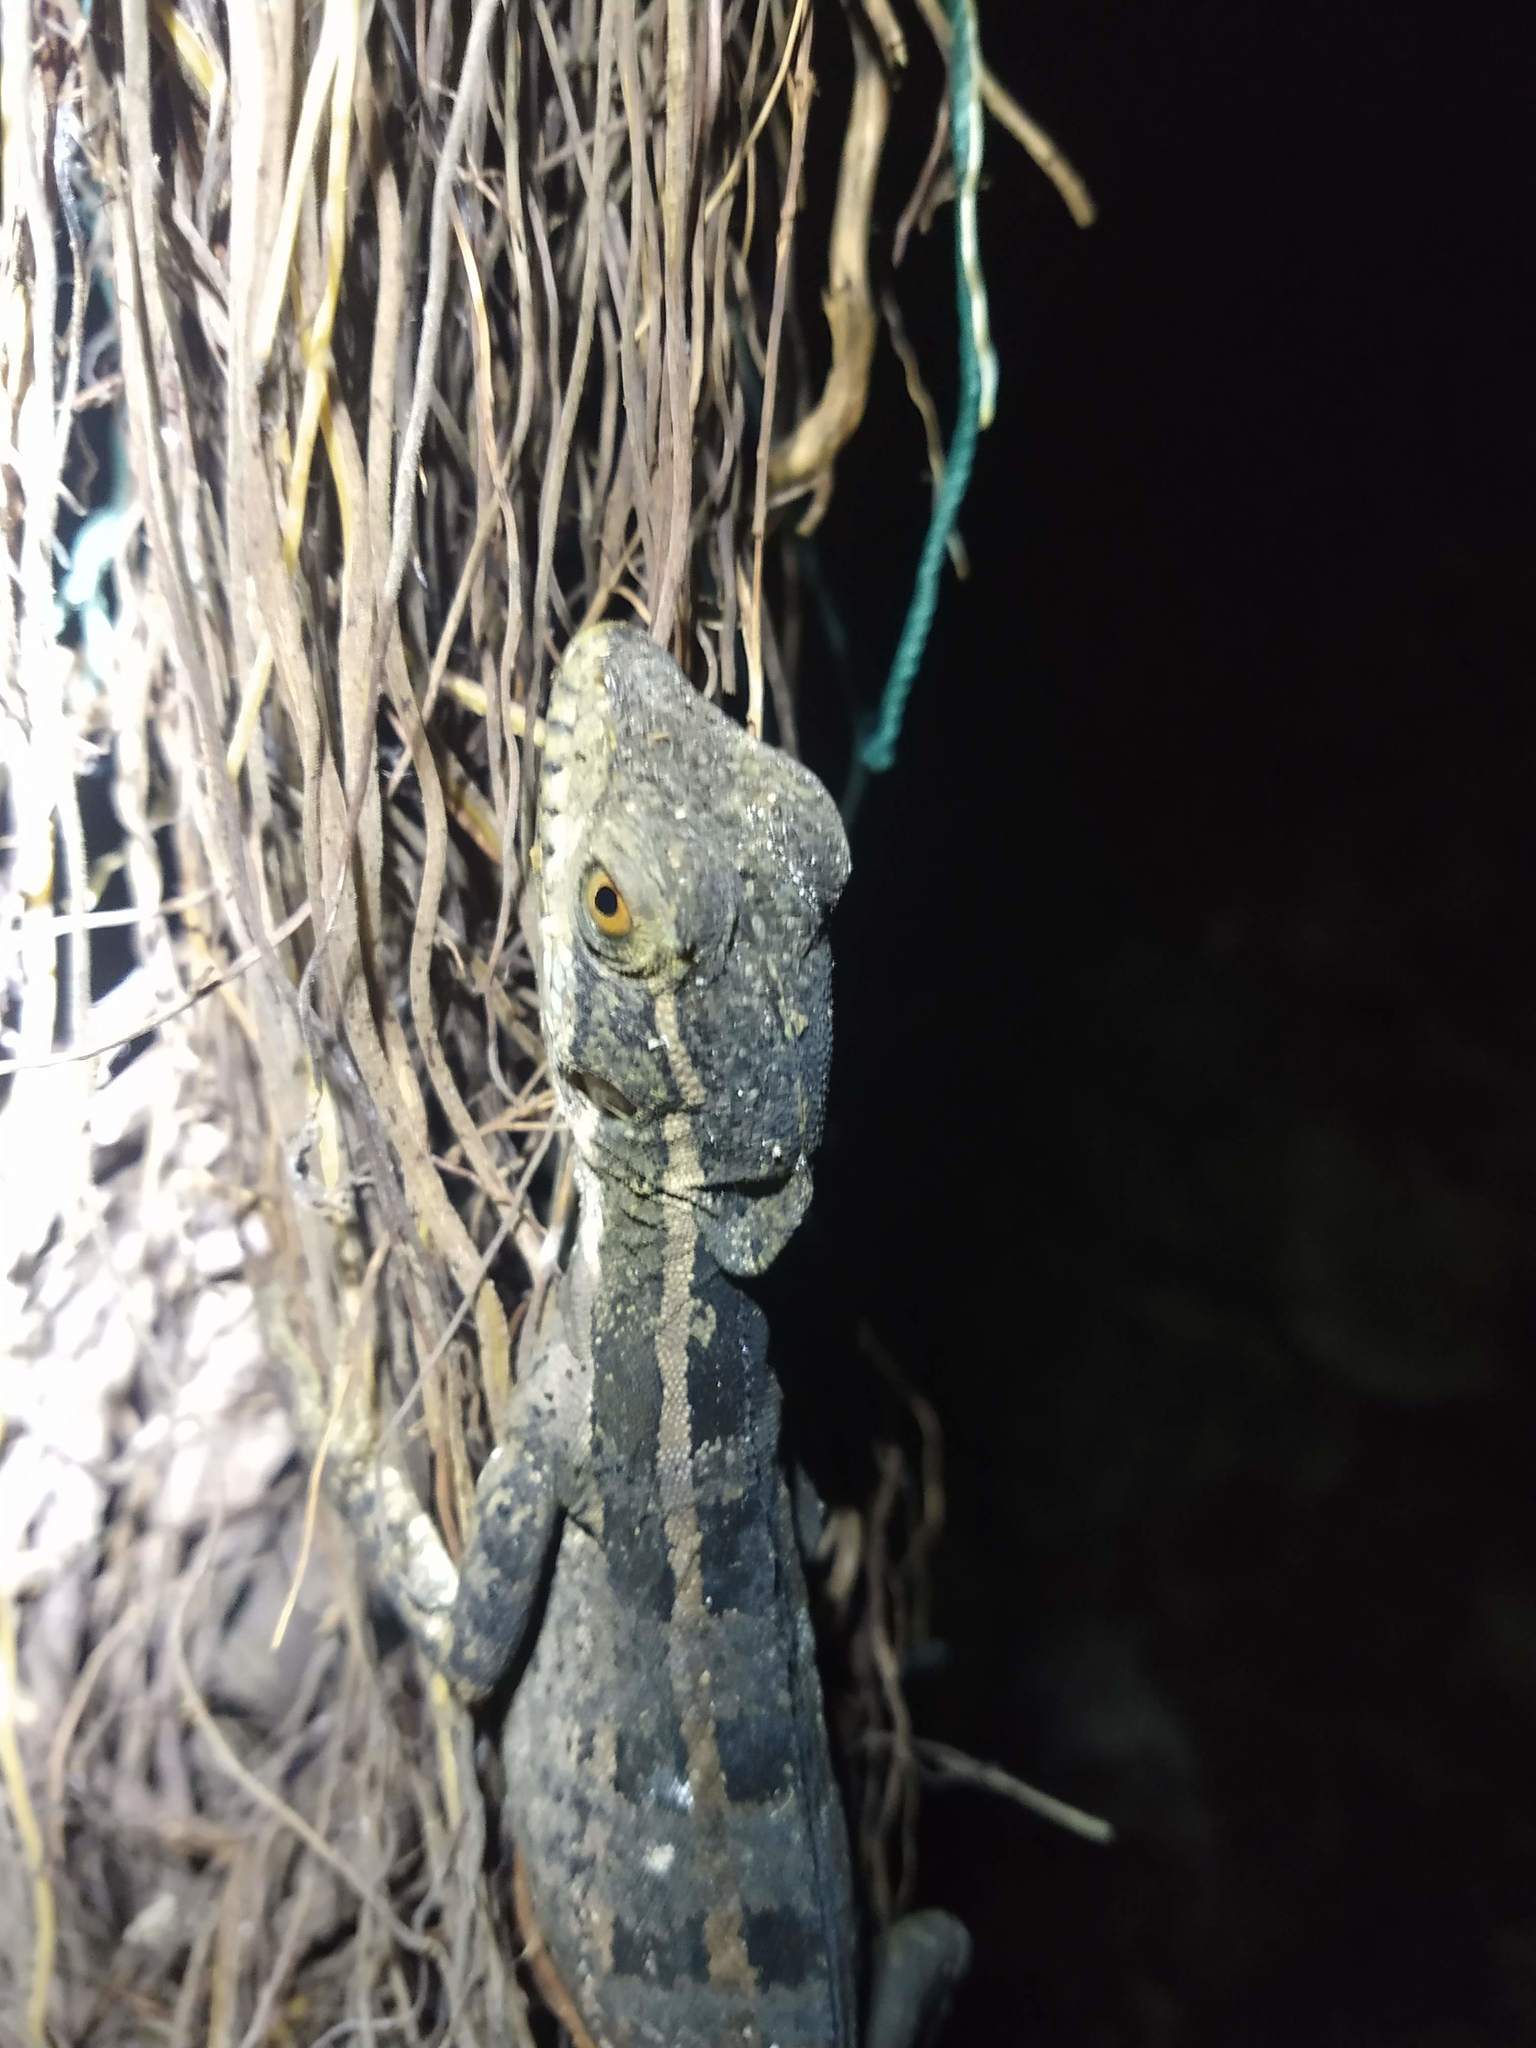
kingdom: Animalia
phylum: Chordata
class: Squamata
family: Corytophanidae
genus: Basiliscus
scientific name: Basiliscus vittatus
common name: Brown basilisk
